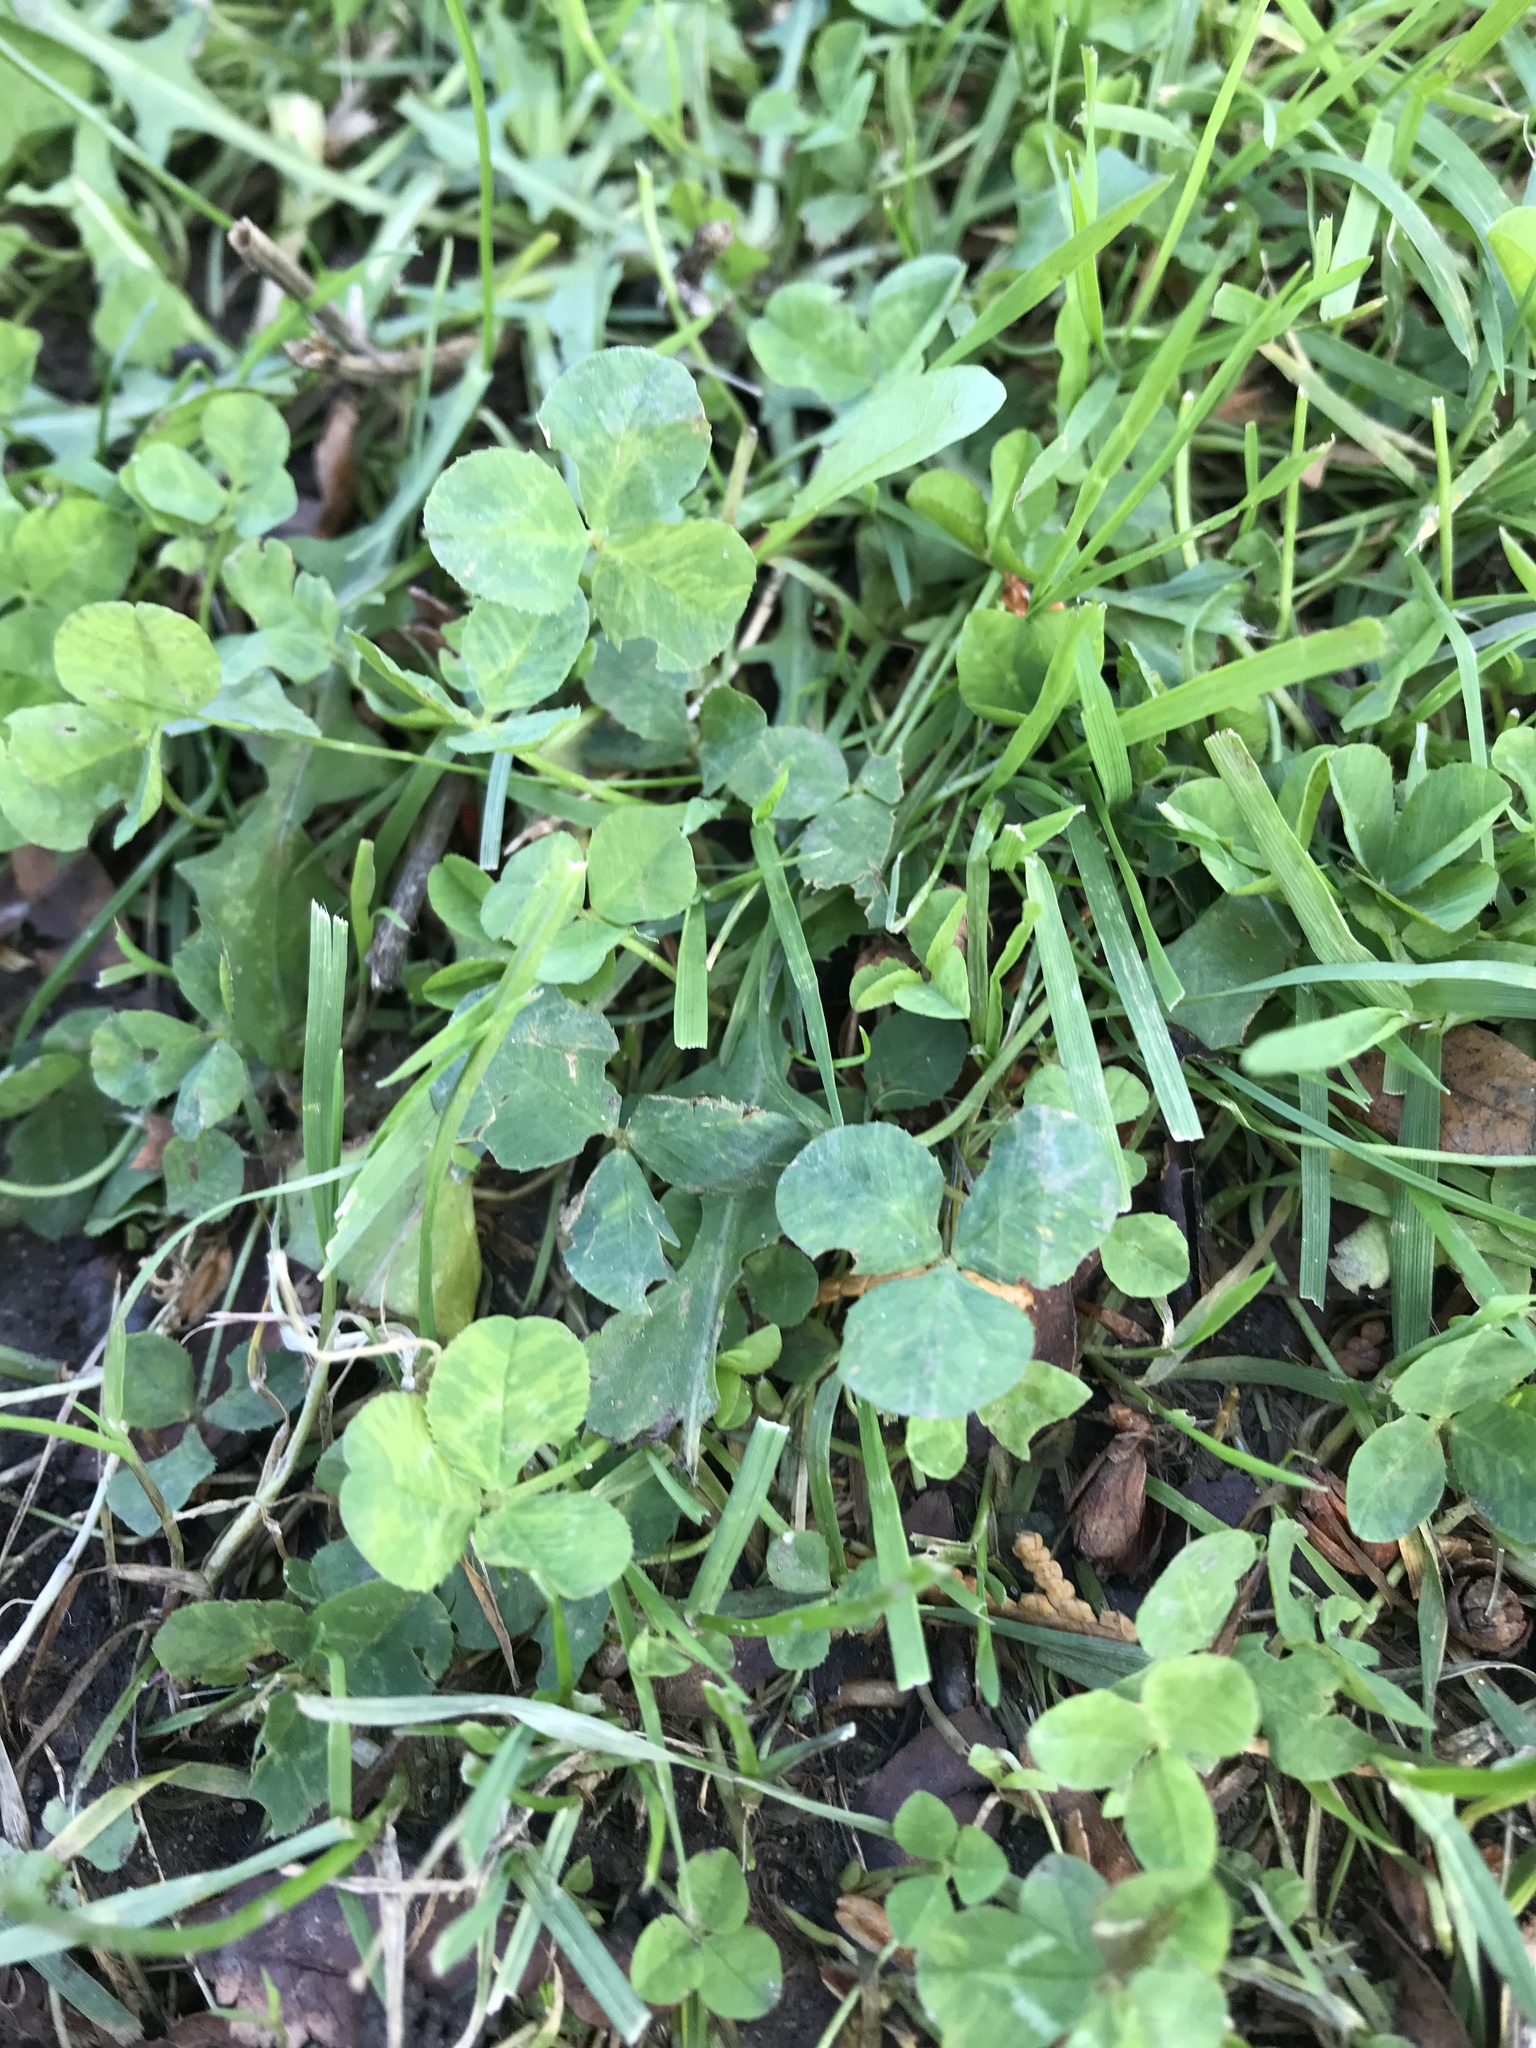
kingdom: Plantae
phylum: Tracheophyta
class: Magnoliopsida
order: Fabales
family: Fabaceae
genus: Trifolium
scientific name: Trifolium repens
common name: White clover
